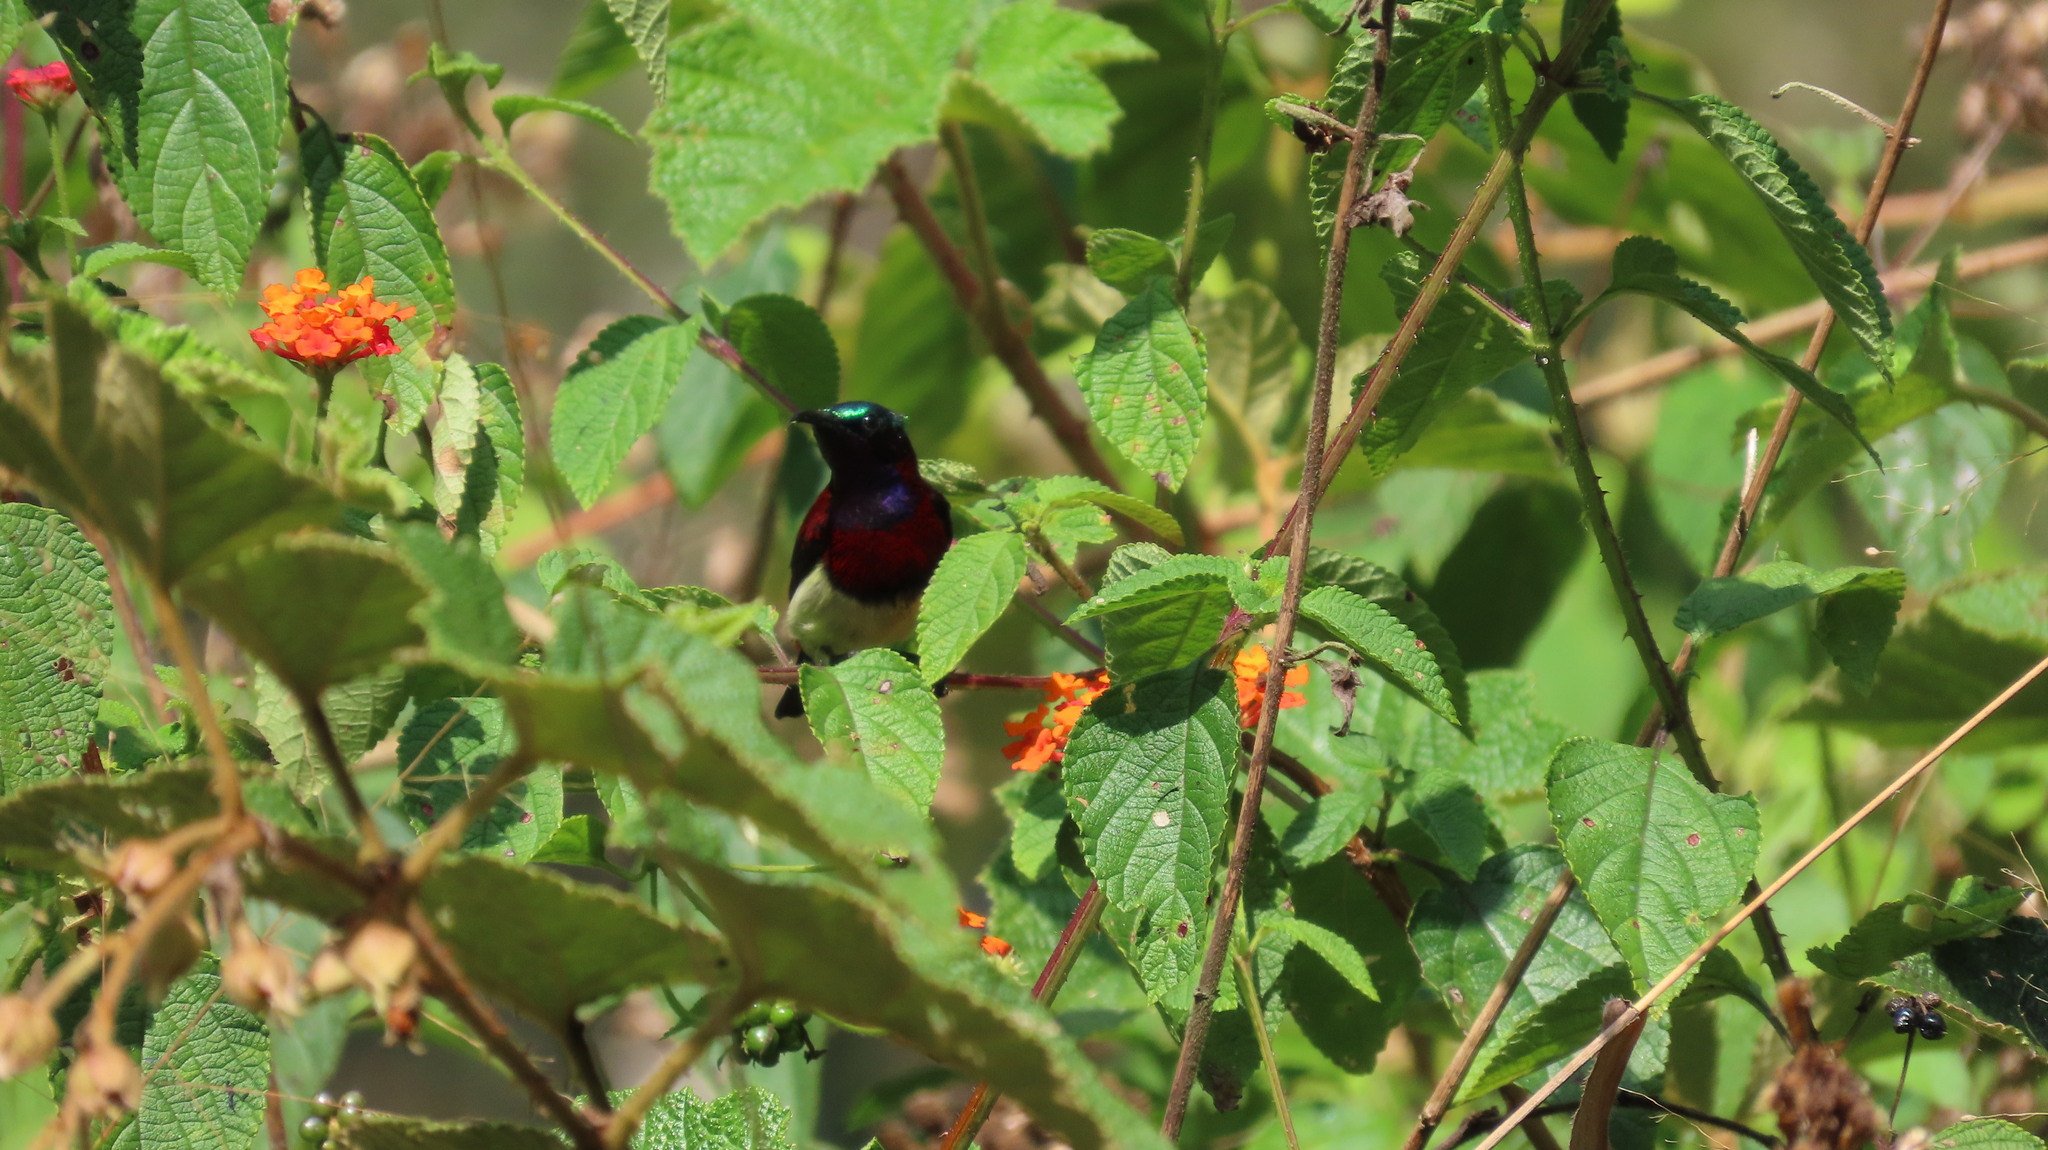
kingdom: Animalia
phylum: Chordata
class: Aves
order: Passeriformes
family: Nectariniidae
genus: Leptocoma
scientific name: Leptocoma minima
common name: Crimson-backed sunbird
